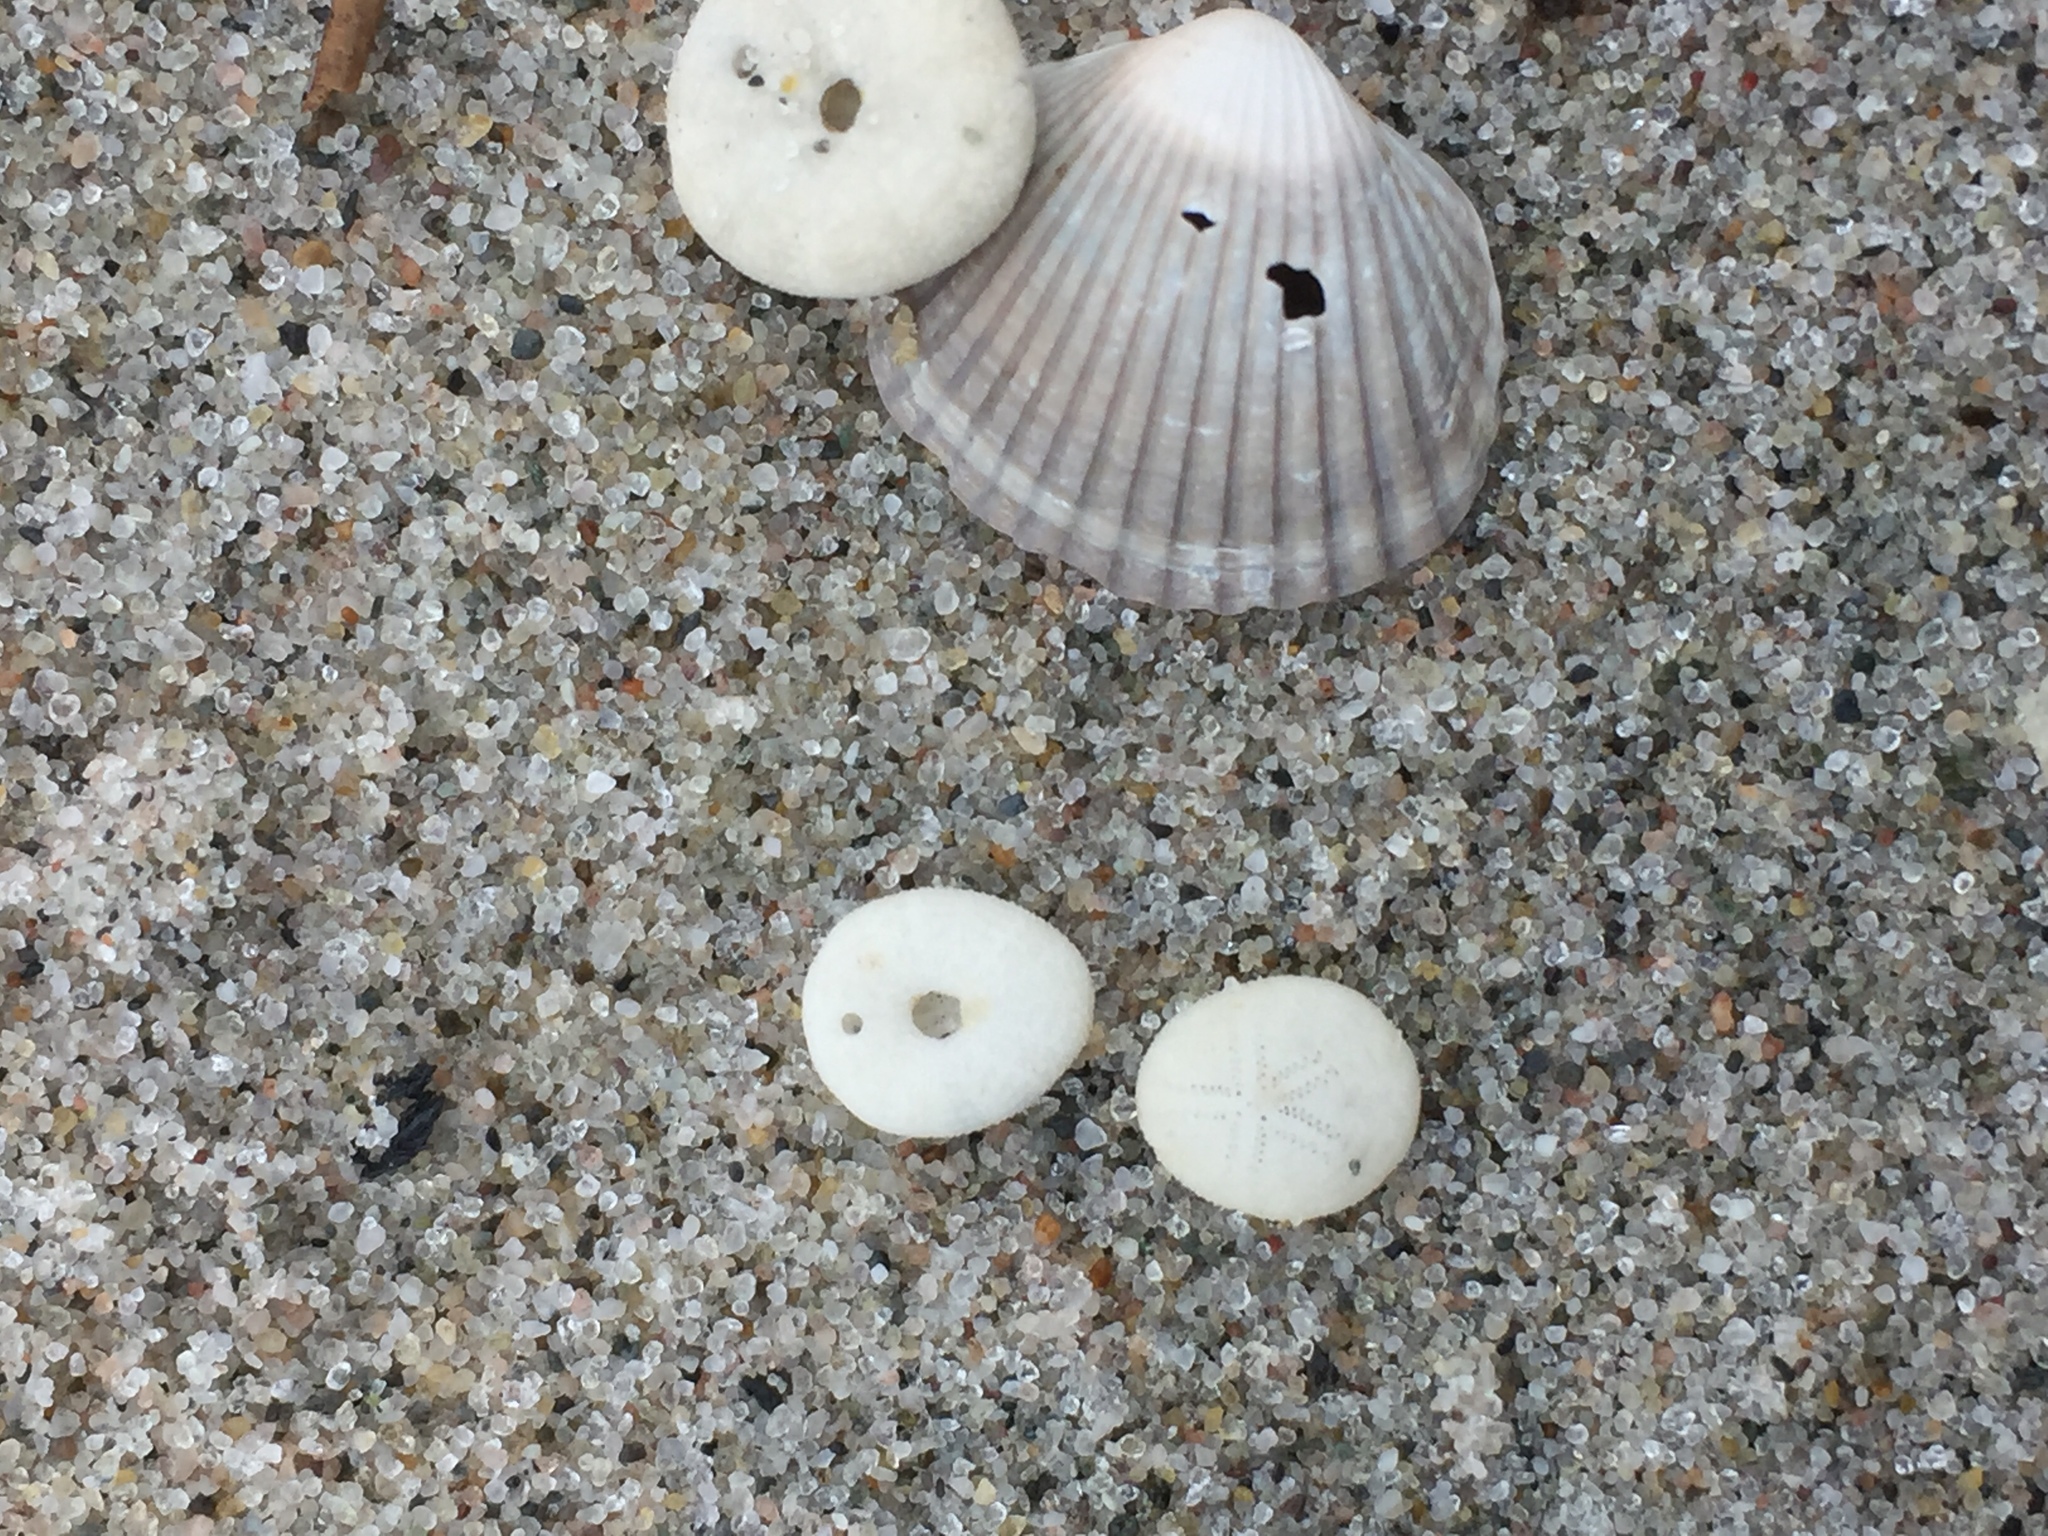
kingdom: Animalia
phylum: Mollusca
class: Bivalvia
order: Cardiida
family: Cardiidae
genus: Cerastoderma
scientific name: Cerastoderma edule
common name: Common cockle
